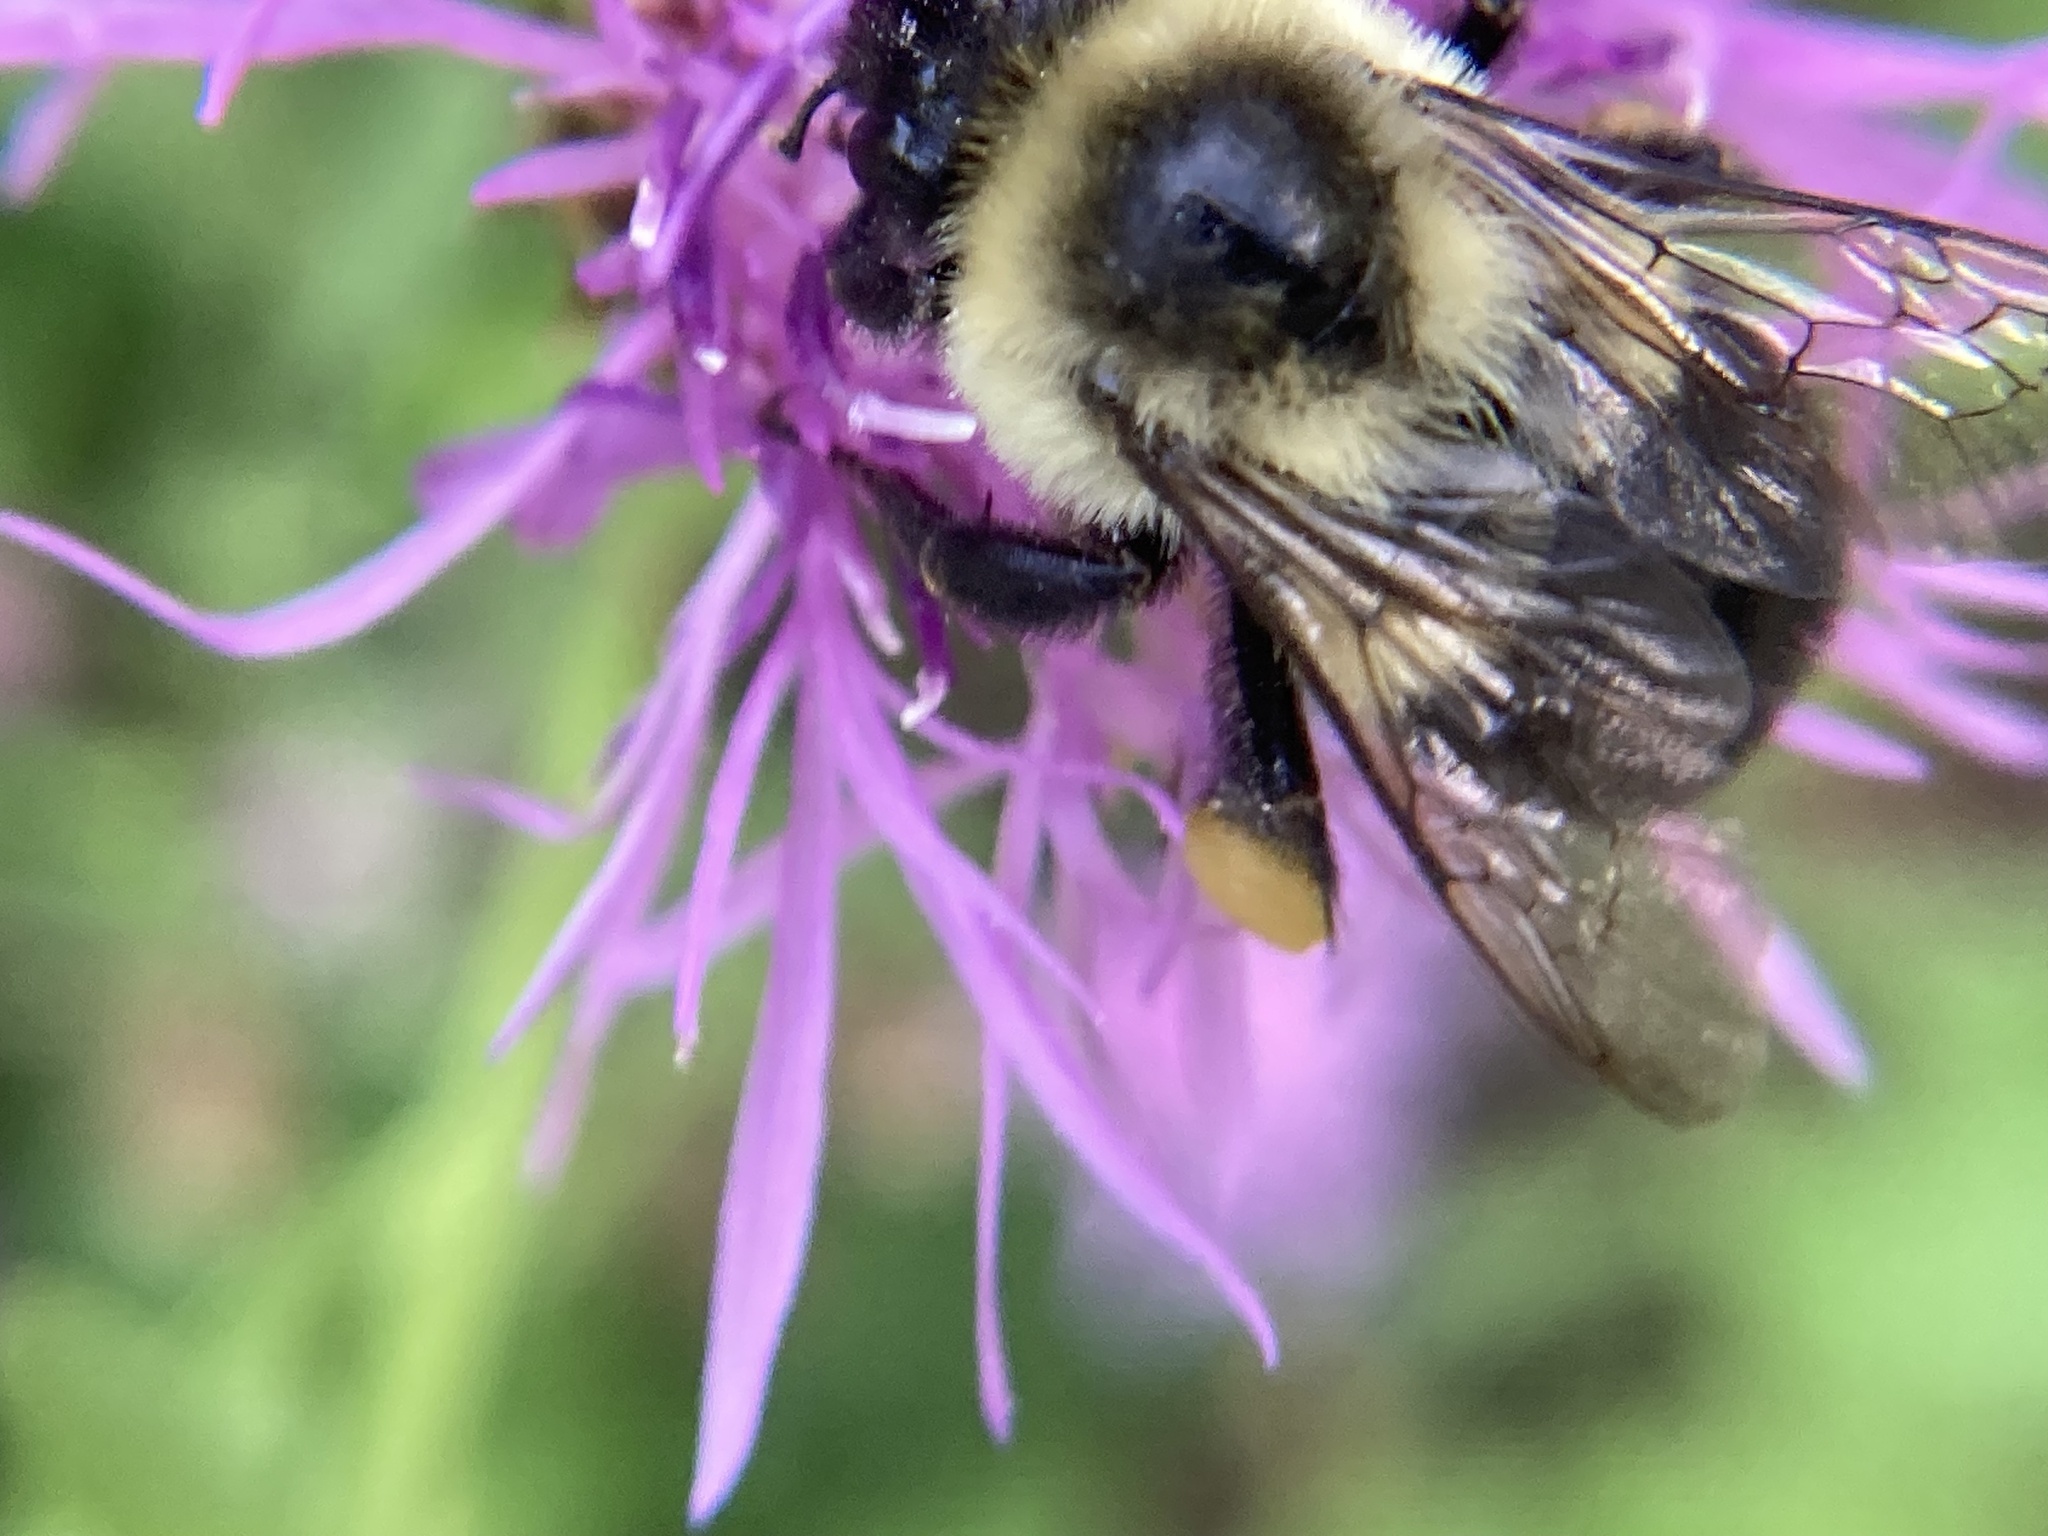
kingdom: Animalia
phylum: Arthropoda
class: Insecta
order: Hymenoptera
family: Apidae
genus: Bombus
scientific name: Bombus impatiens
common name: Common eastern bumble bee
